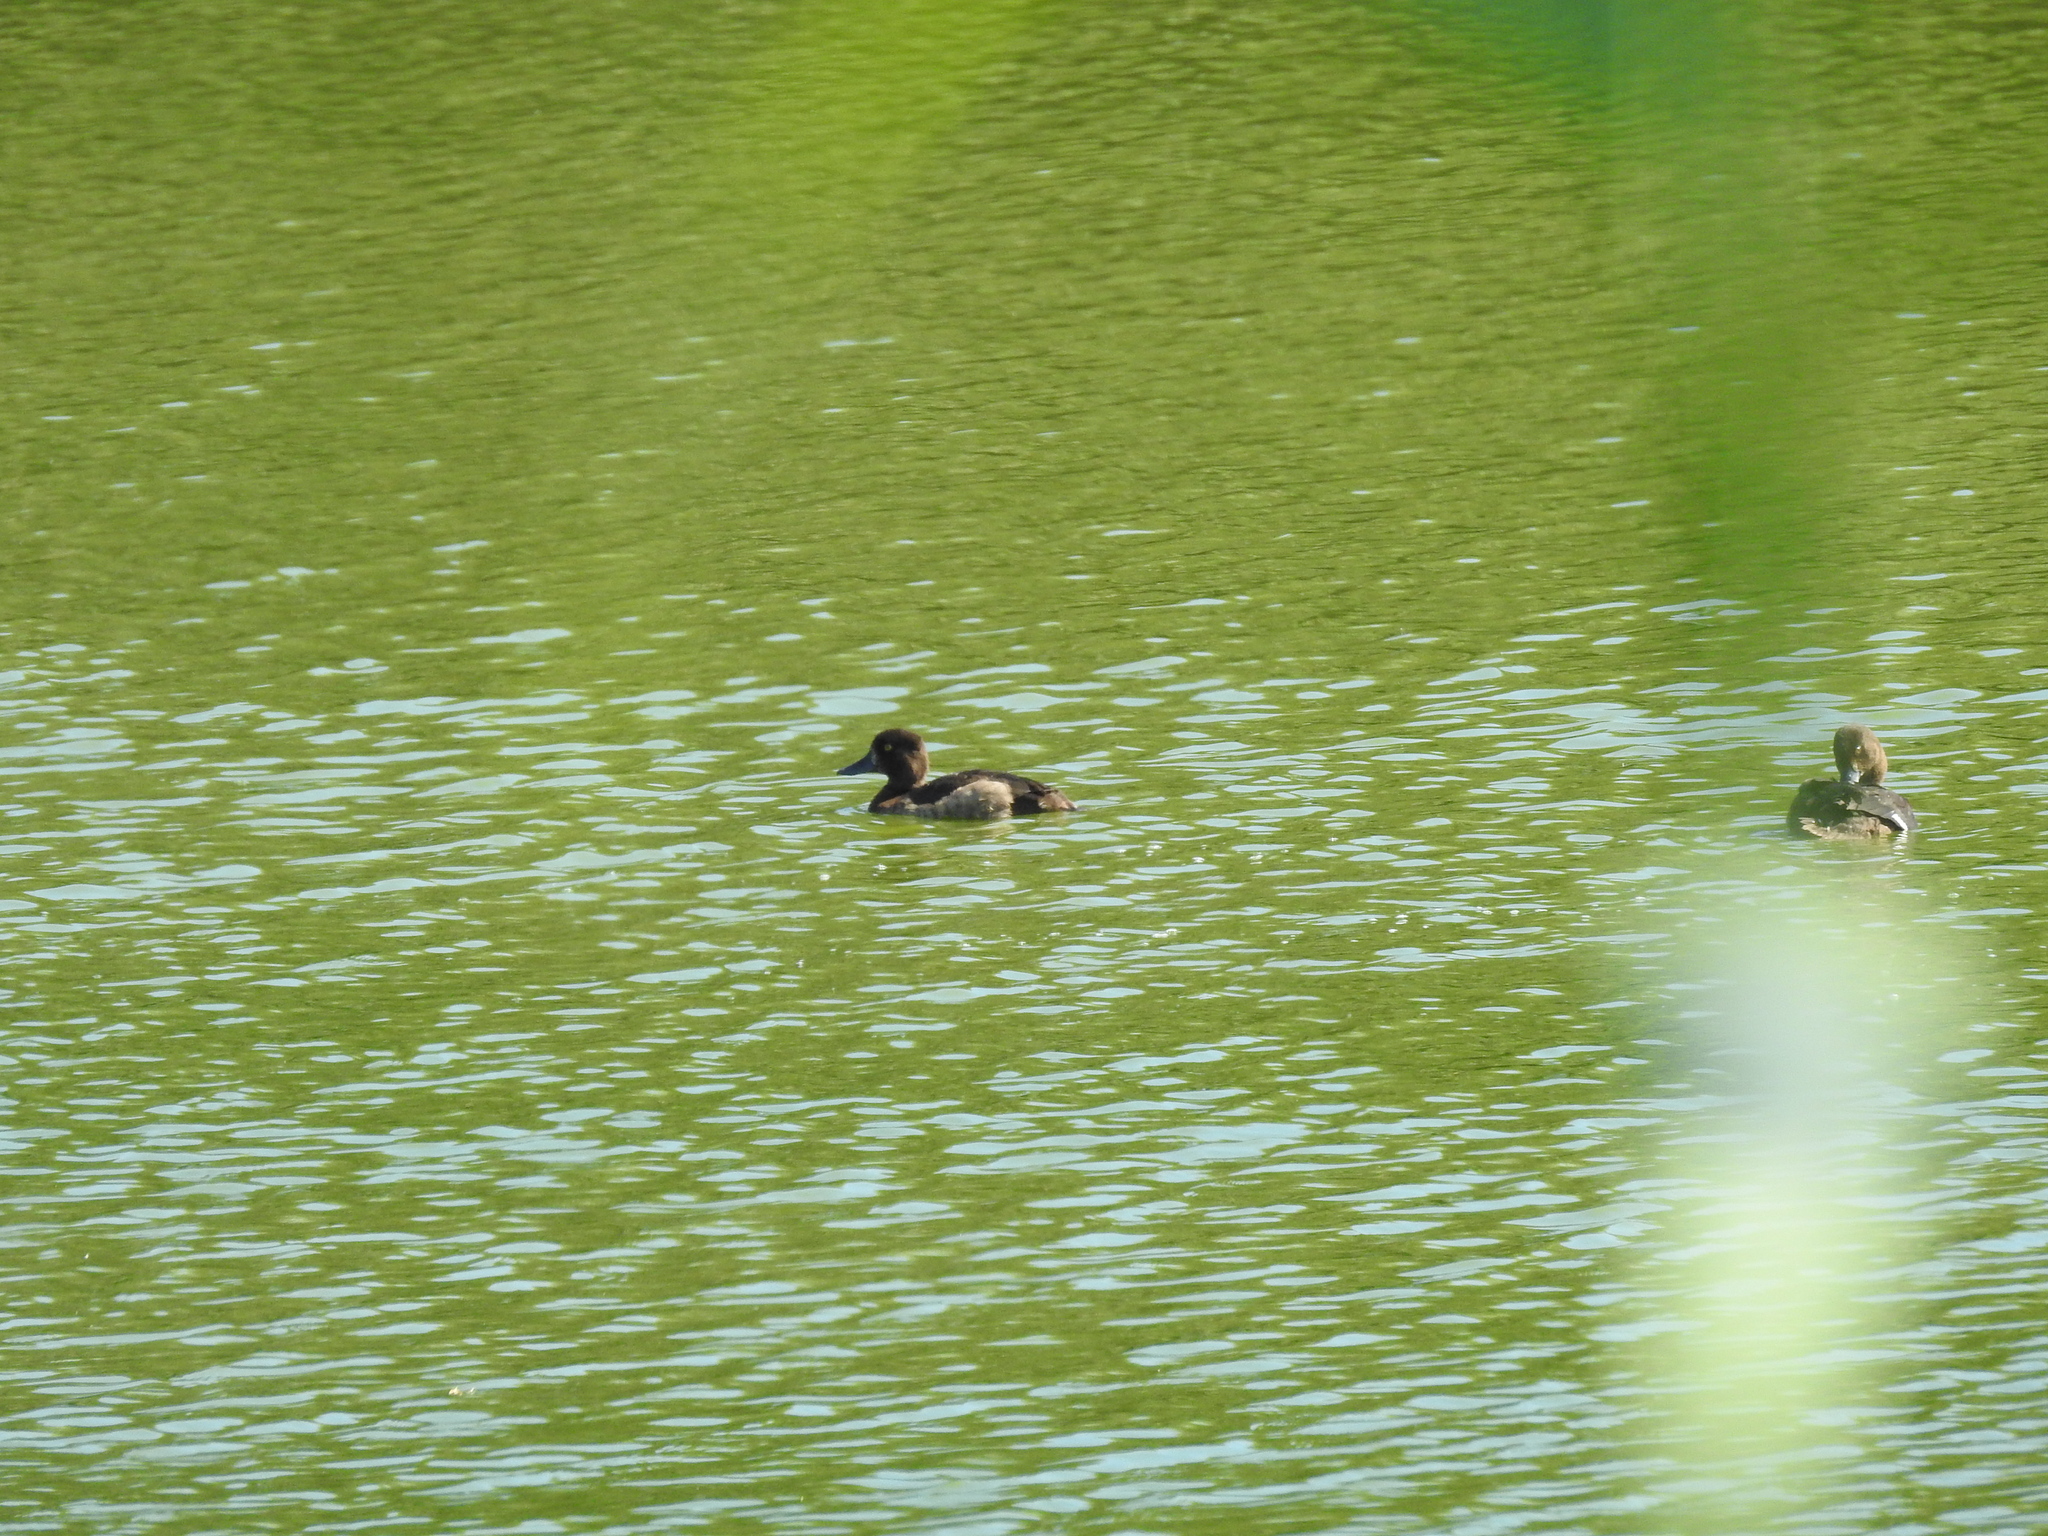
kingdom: Animalia
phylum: Chordata
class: Aves
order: Anseriformes
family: Anatidae
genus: Aythya
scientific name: Aythya fuligula
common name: Tufted duck
